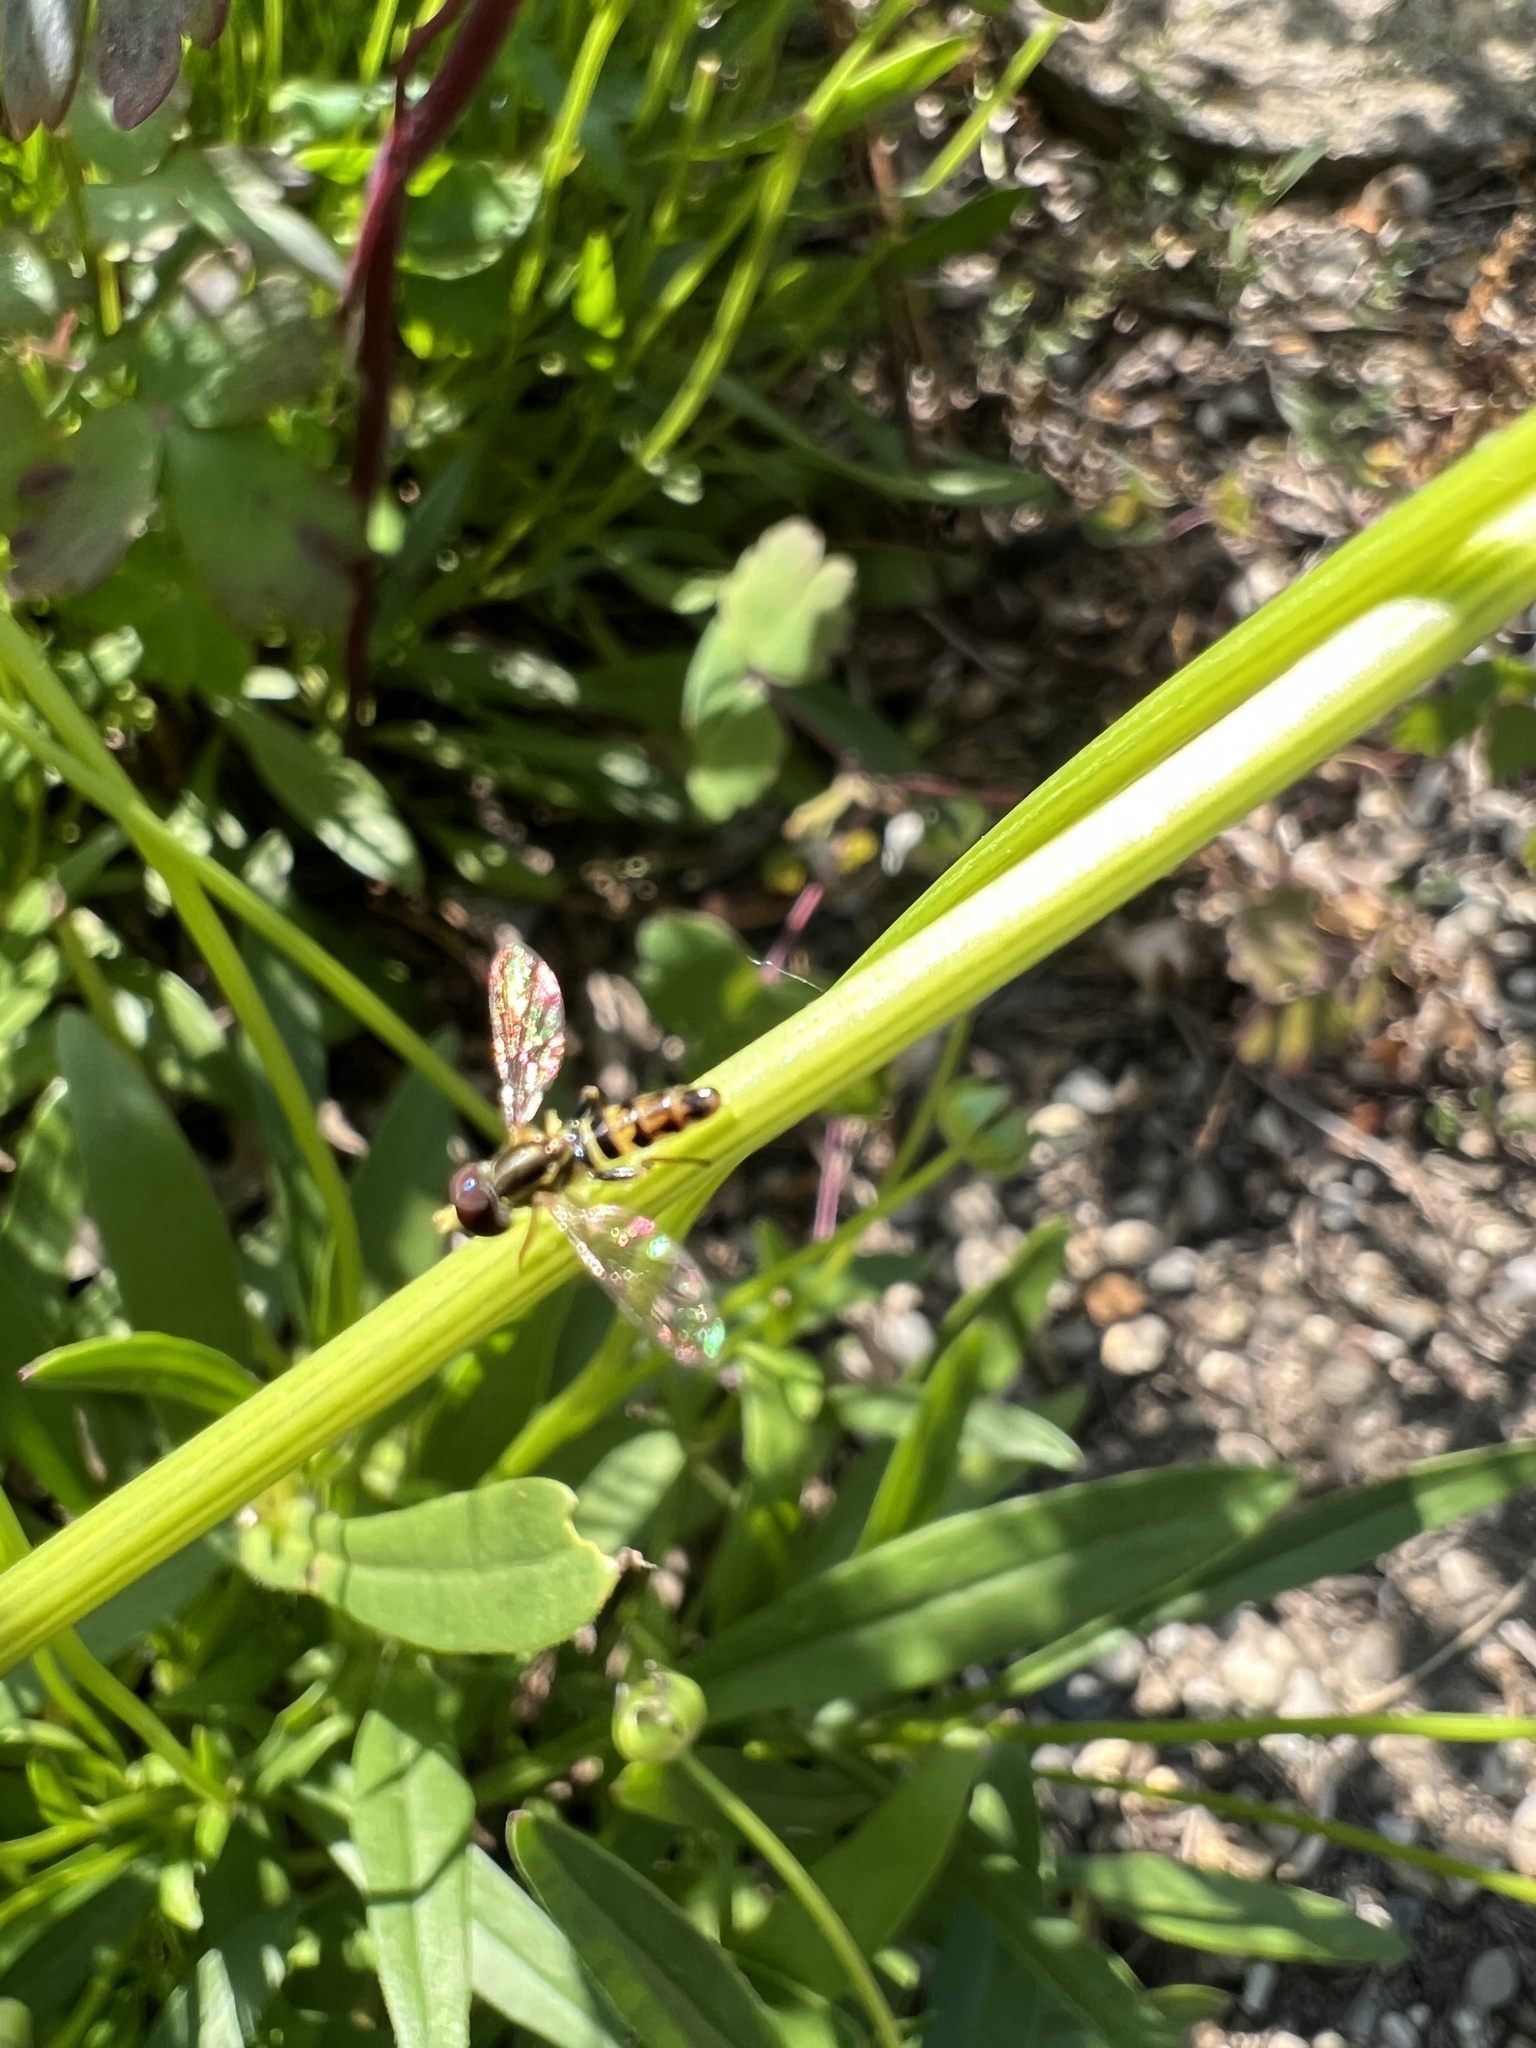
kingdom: Animalia
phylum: Arthropoda
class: Insecta
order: Diptera
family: Syrphidae
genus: Toxomerus
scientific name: Toxomerus geminatus
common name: Eastern calligrapher
